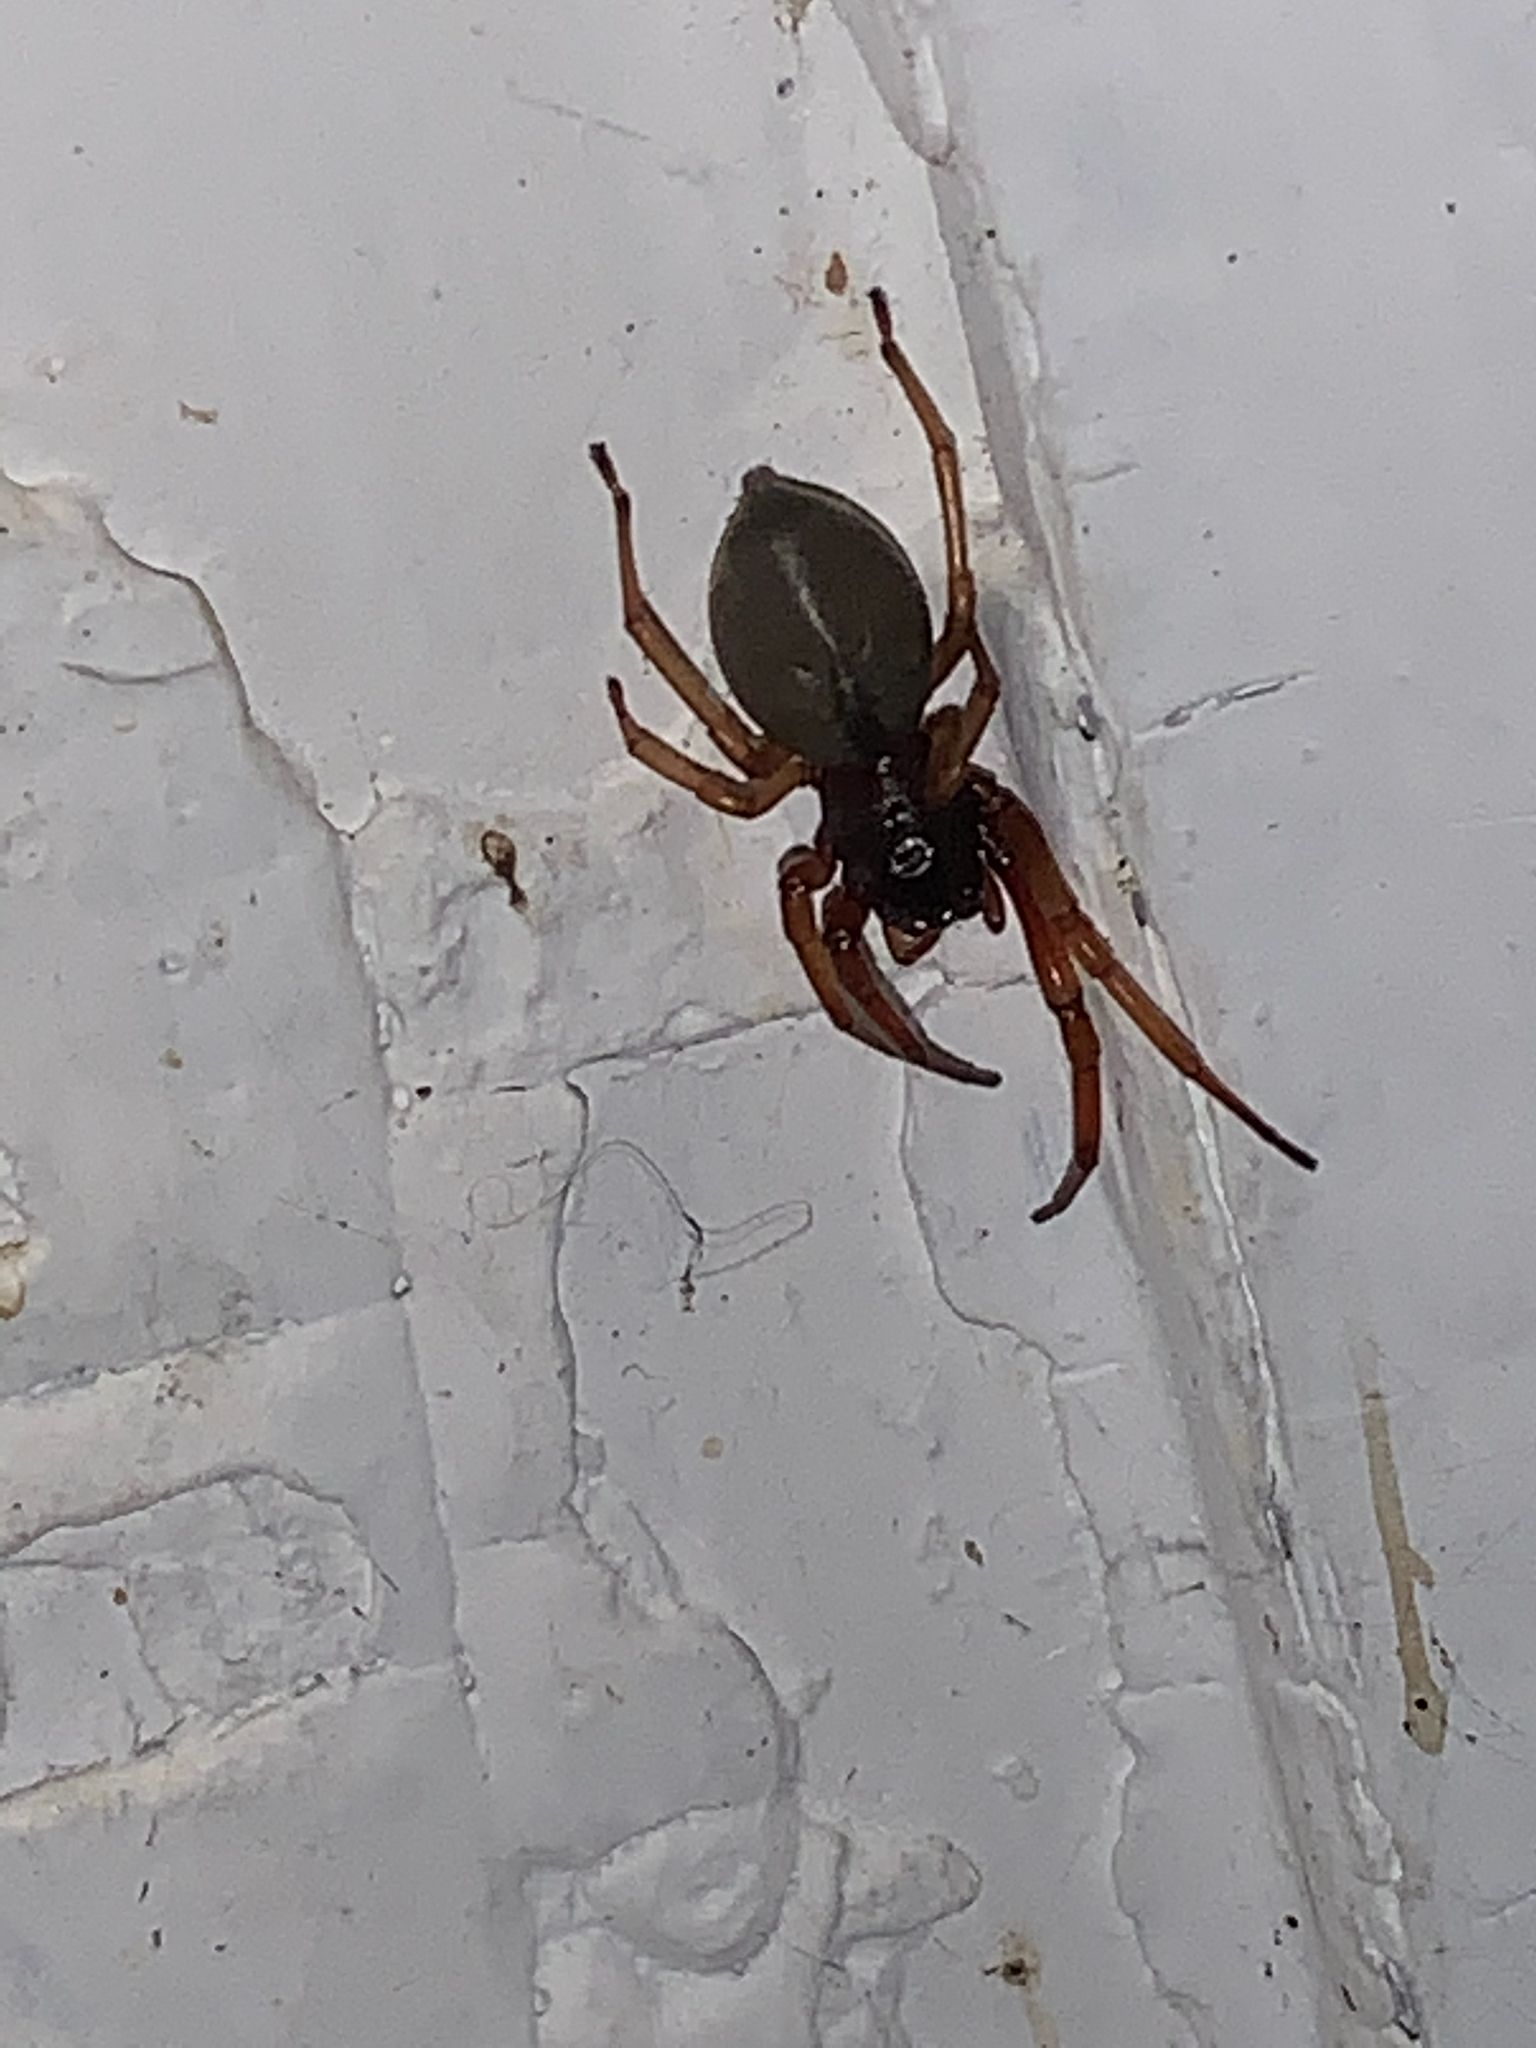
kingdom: Animalia
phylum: Arthropoda
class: Arachnida
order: Araneae
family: Trachelidae
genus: Trachelas
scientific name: Trachelas tranquillus
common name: Broad-faced sac spider
